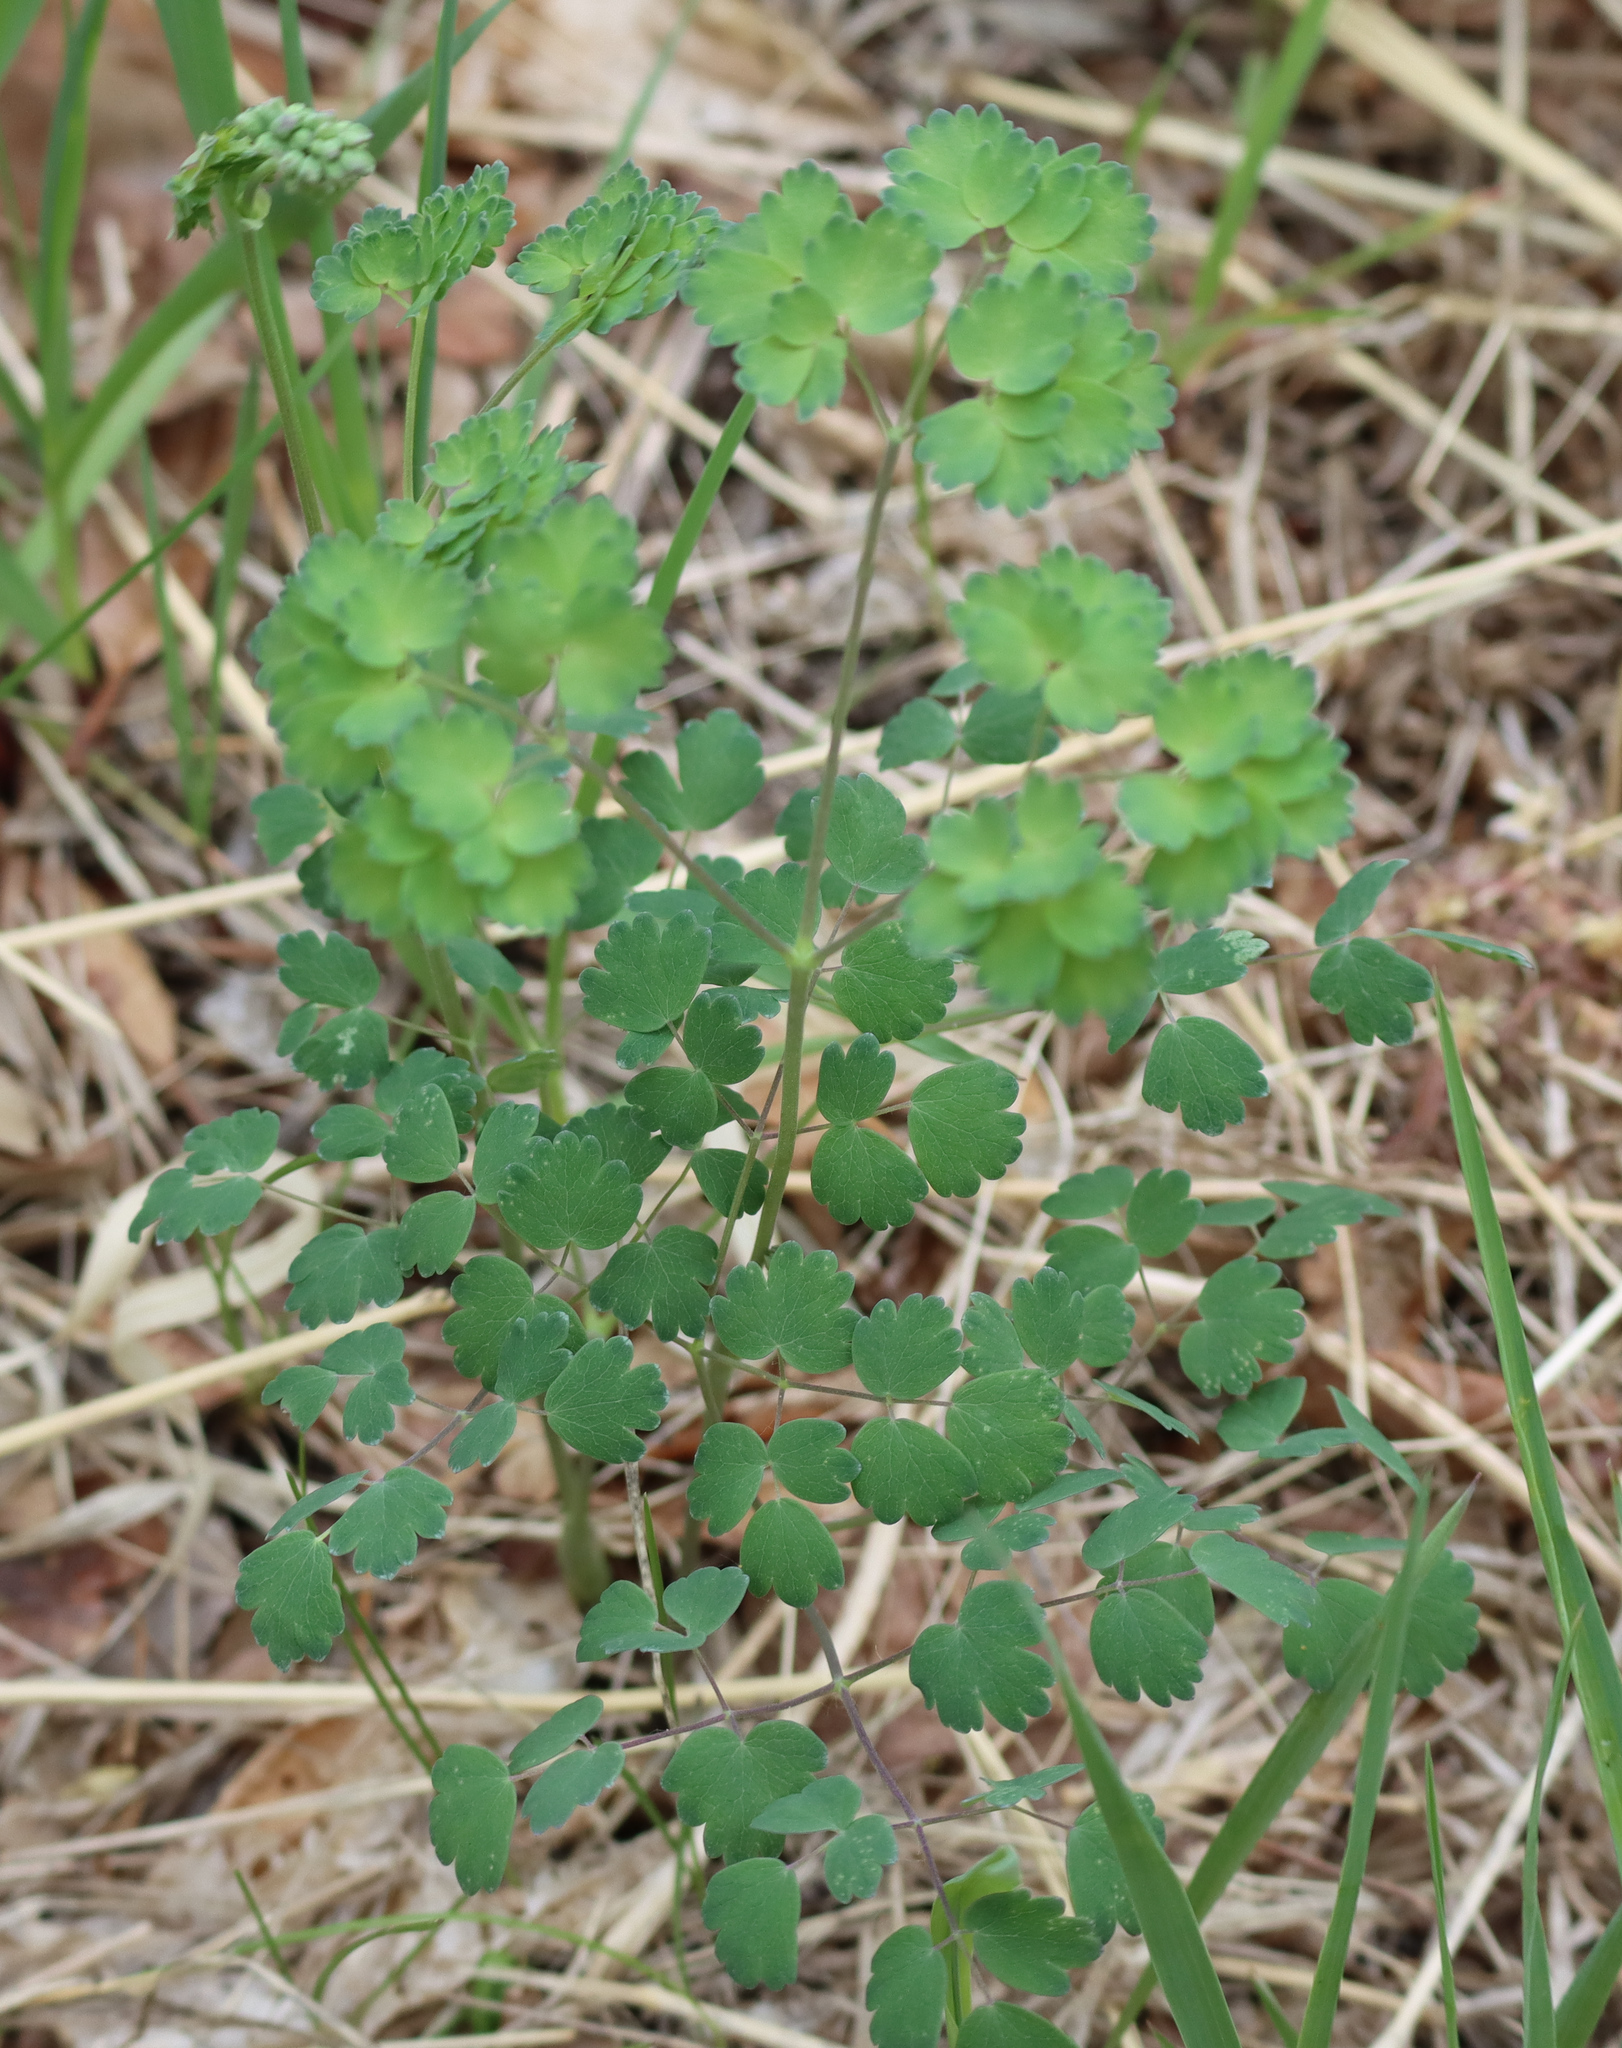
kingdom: Plantae
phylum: Tracheophyta
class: Magnoliopsida
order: Ranunculales
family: Ranunculaceae
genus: Thalictrum
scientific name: Thalictrum venulosum
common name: Early meadow-rue
